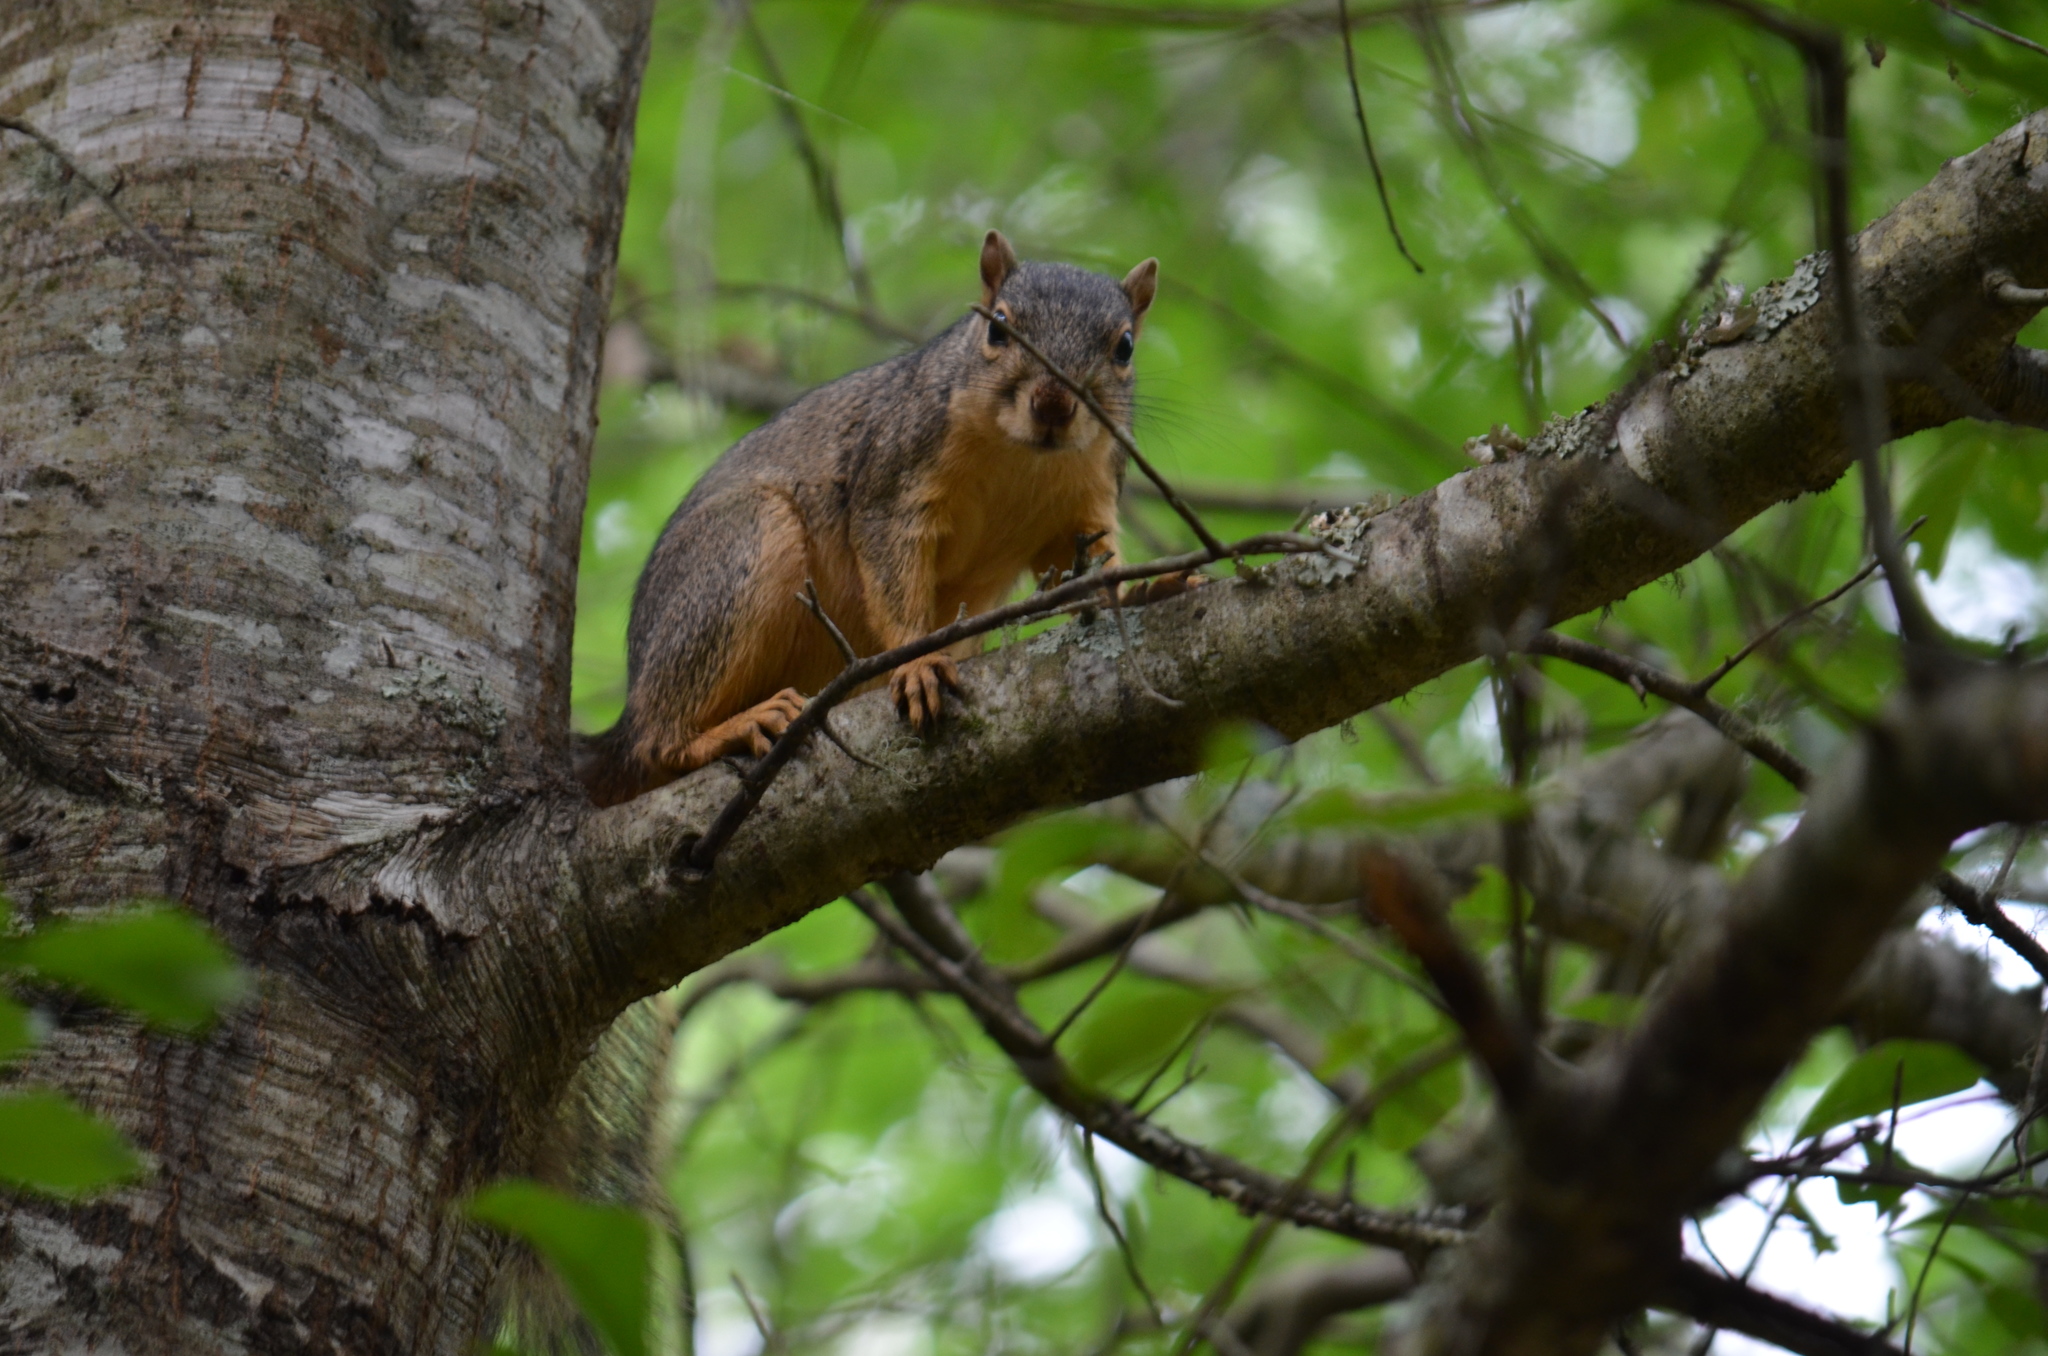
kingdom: Animalia
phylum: Chordata
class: Mammalia
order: Rodentia
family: Sciuridae
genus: Sciurus
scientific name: Sciurus niger
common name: Fox squirrel
